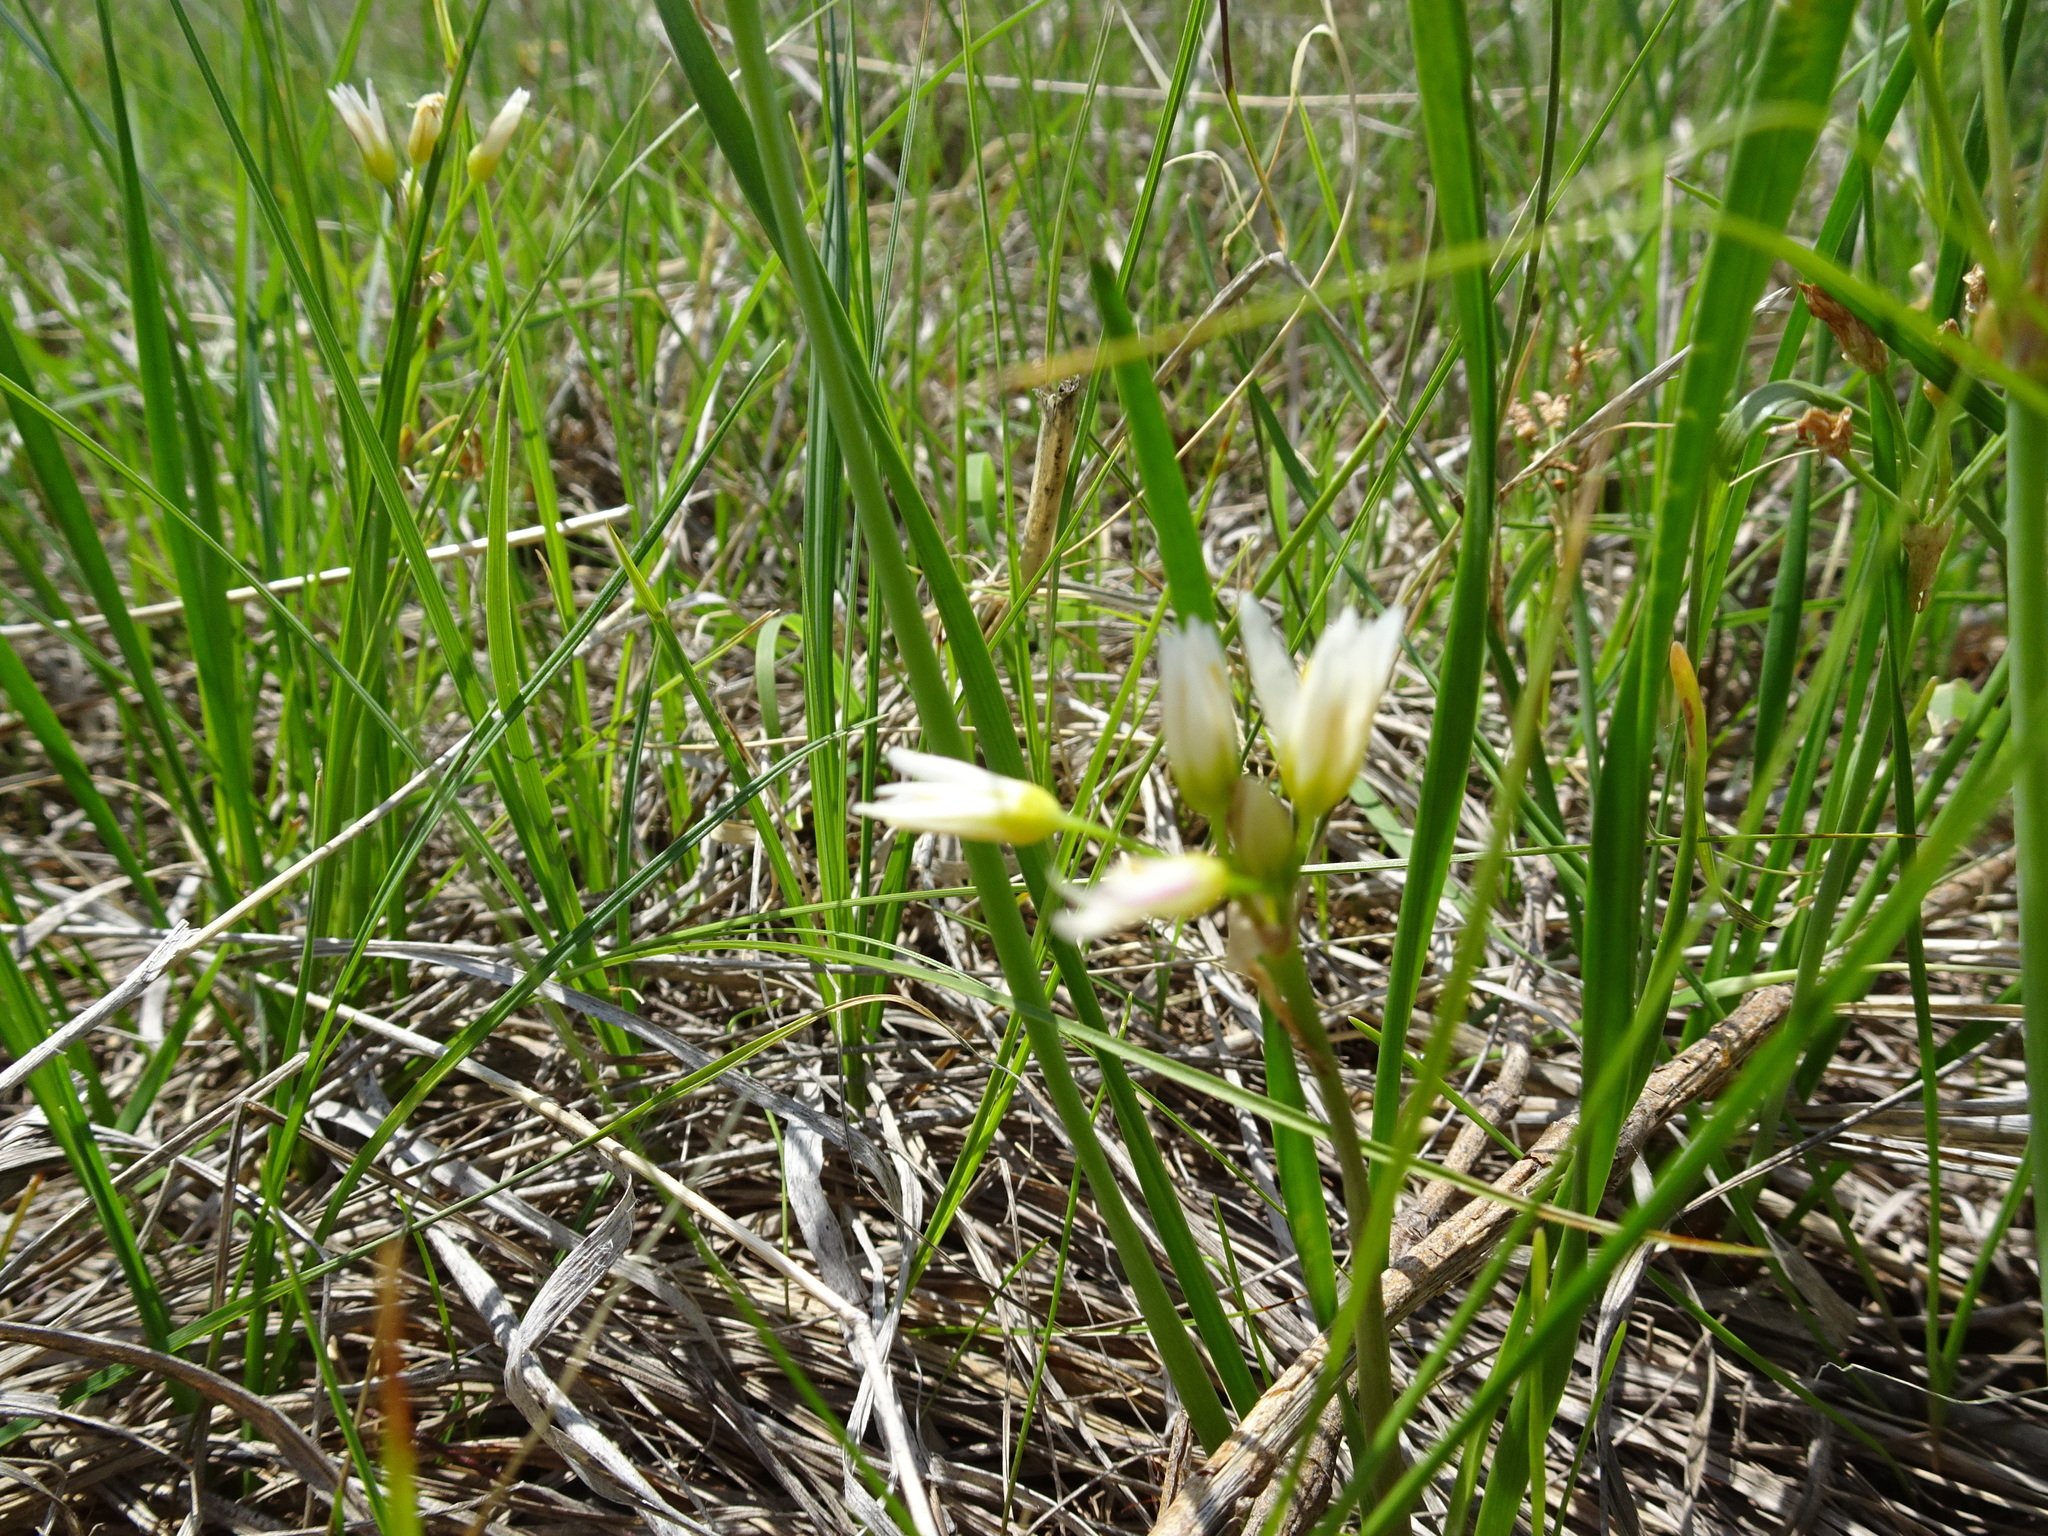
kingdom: Plantae
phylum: Tracheophyta
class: Liliopsida
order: Asparagales
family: Amaryllidaceae
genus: Nothoscordum
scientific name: Nothoscordum bivalve
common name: Crow-poison
